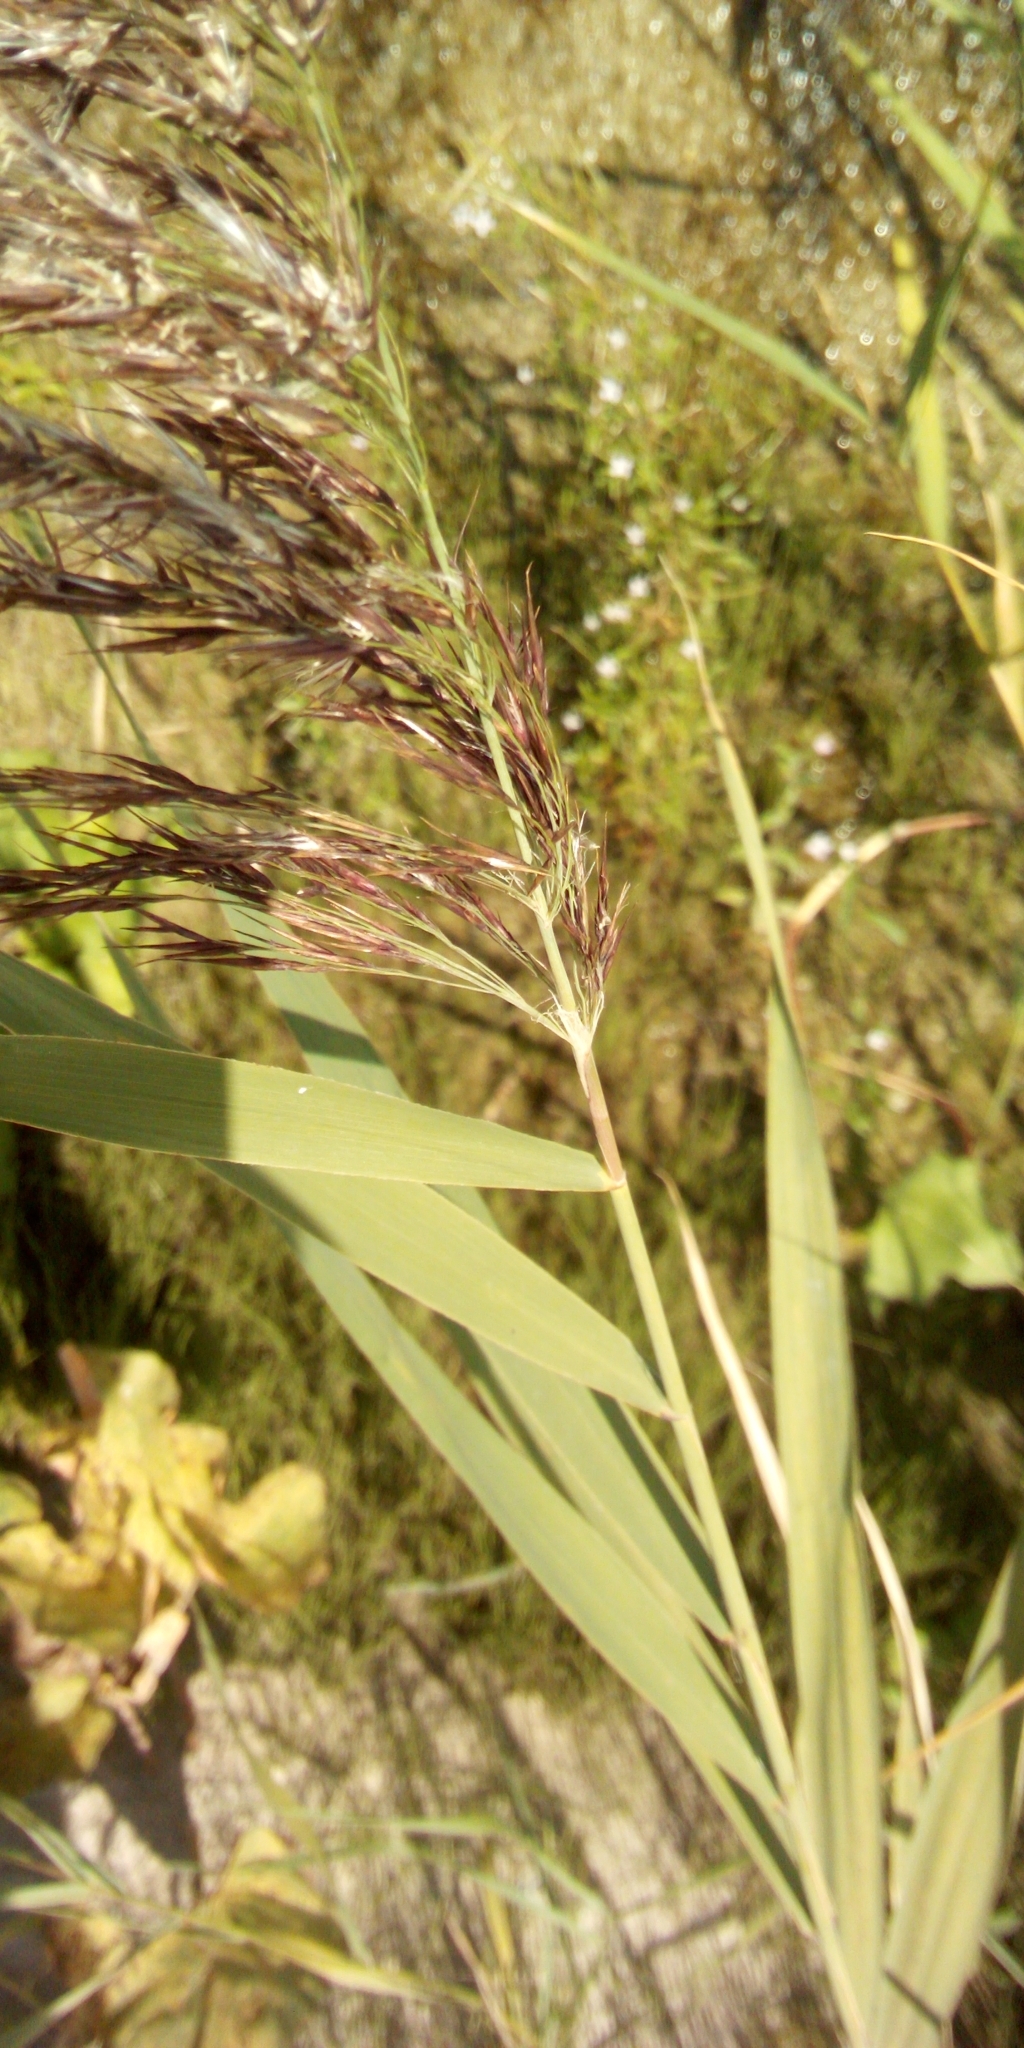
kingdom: Plantae
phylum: Tracheophyta
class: Liliopsida
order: Poales
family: Poaceae
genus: Phragmites
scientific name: Phragmites australis
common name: Common reed
